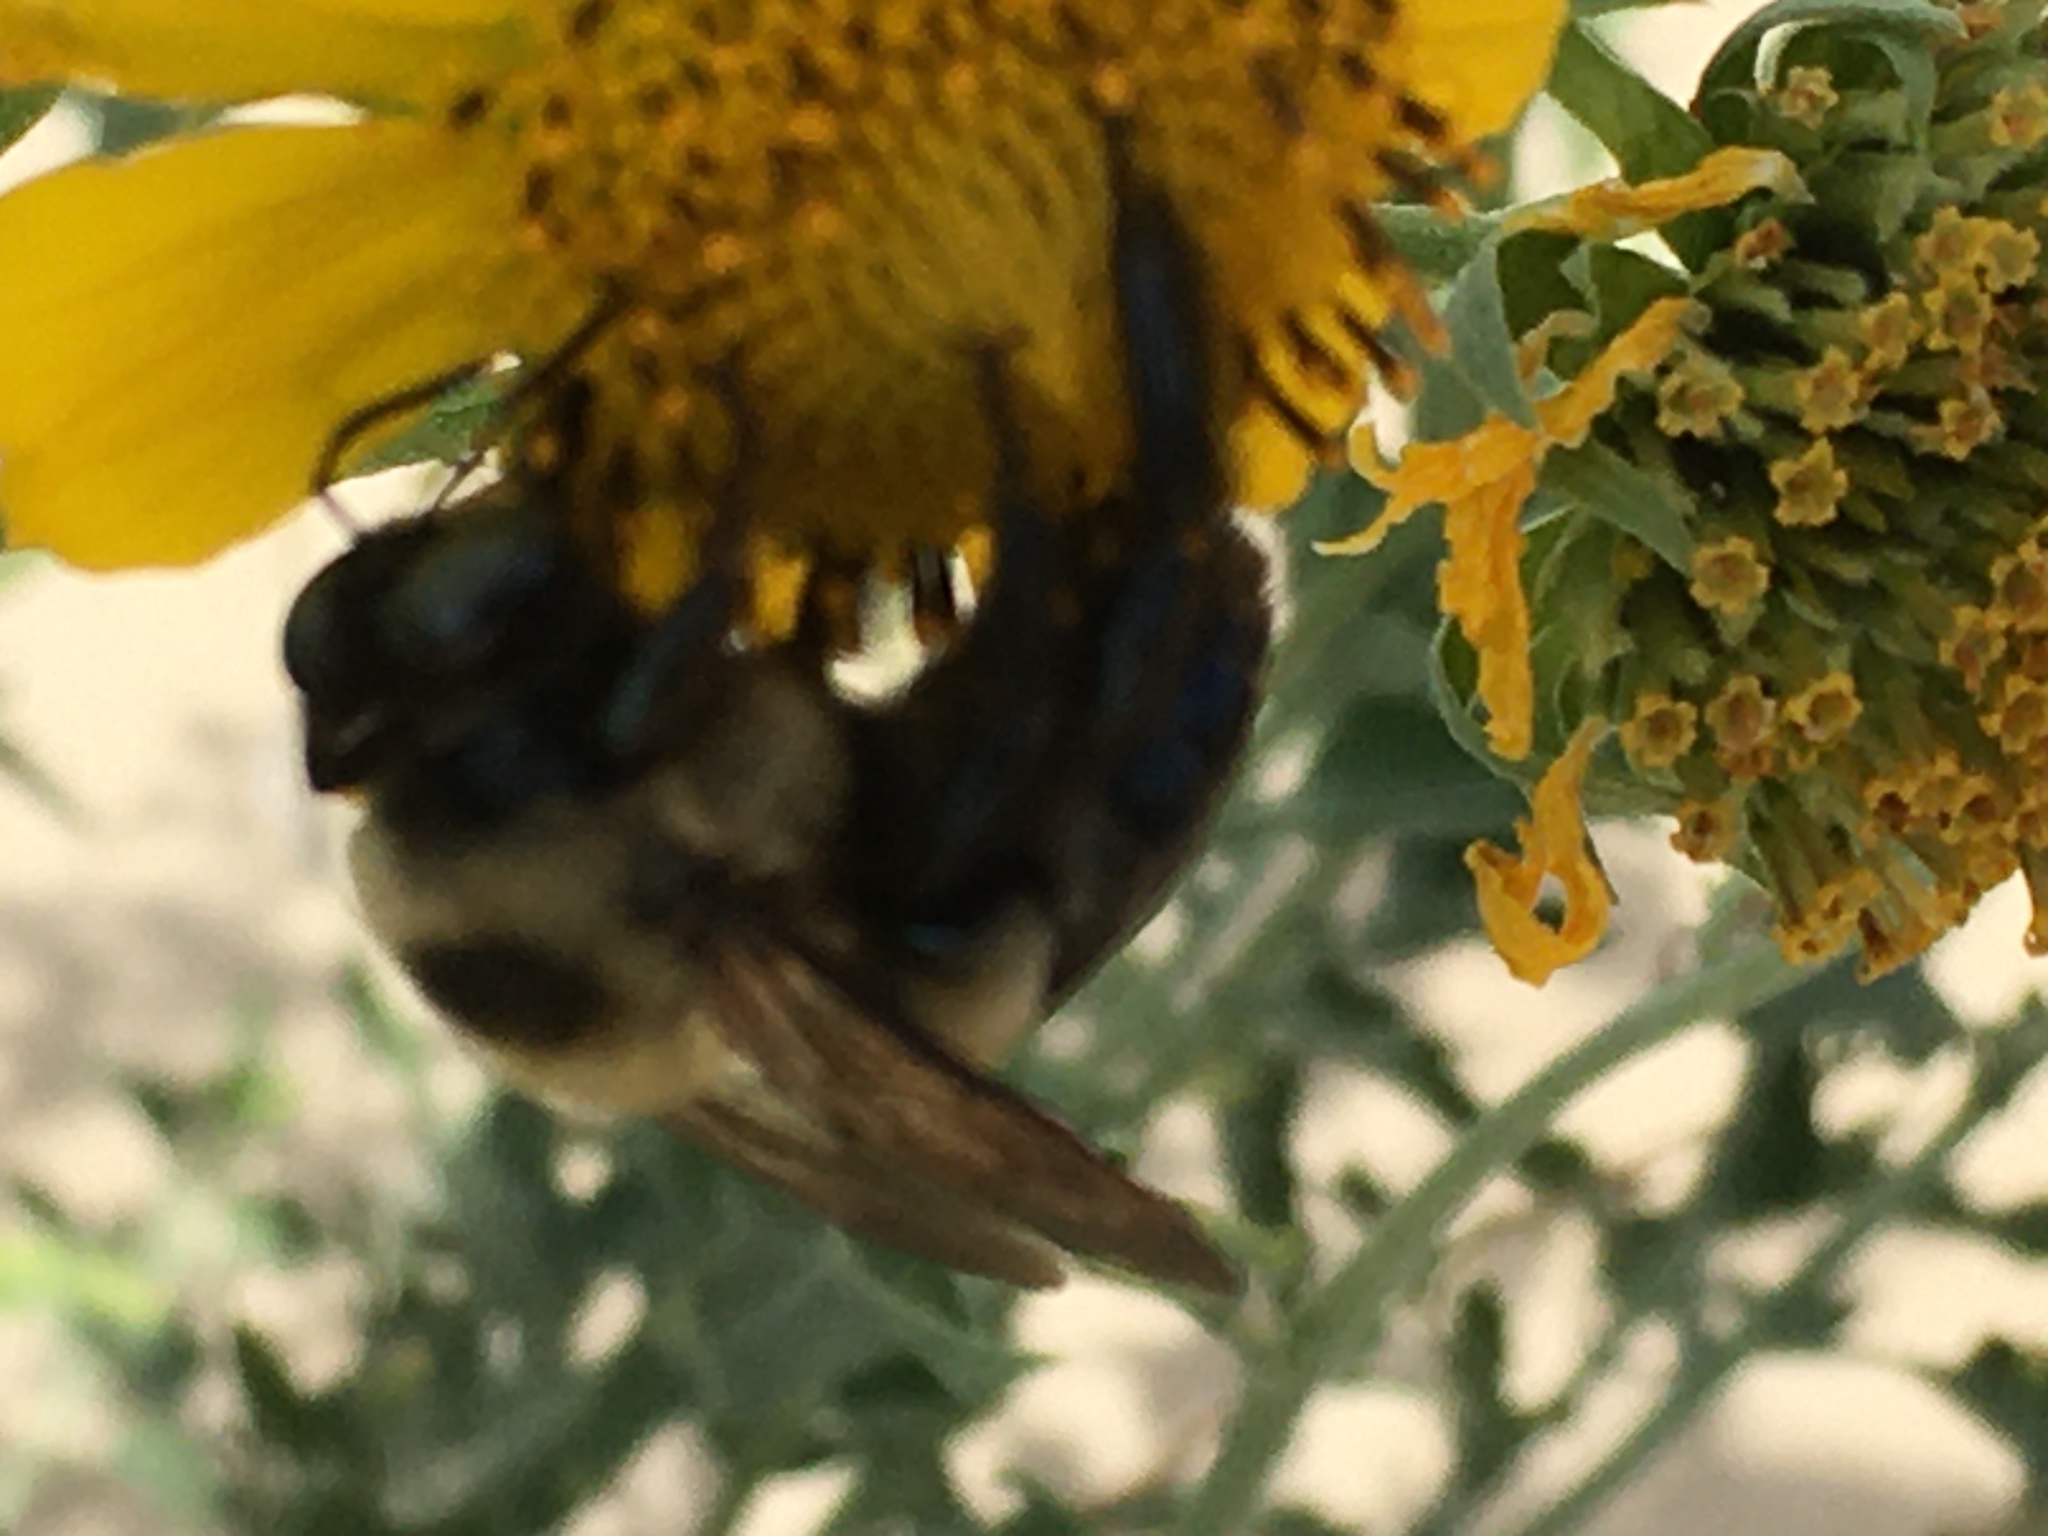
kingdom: Animalia
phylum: Arthropoda
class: Insecta
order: Hymenoptera
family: Apidae
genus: Xylocopa
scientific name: Xylocopa virginica
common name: Carpenter bee
